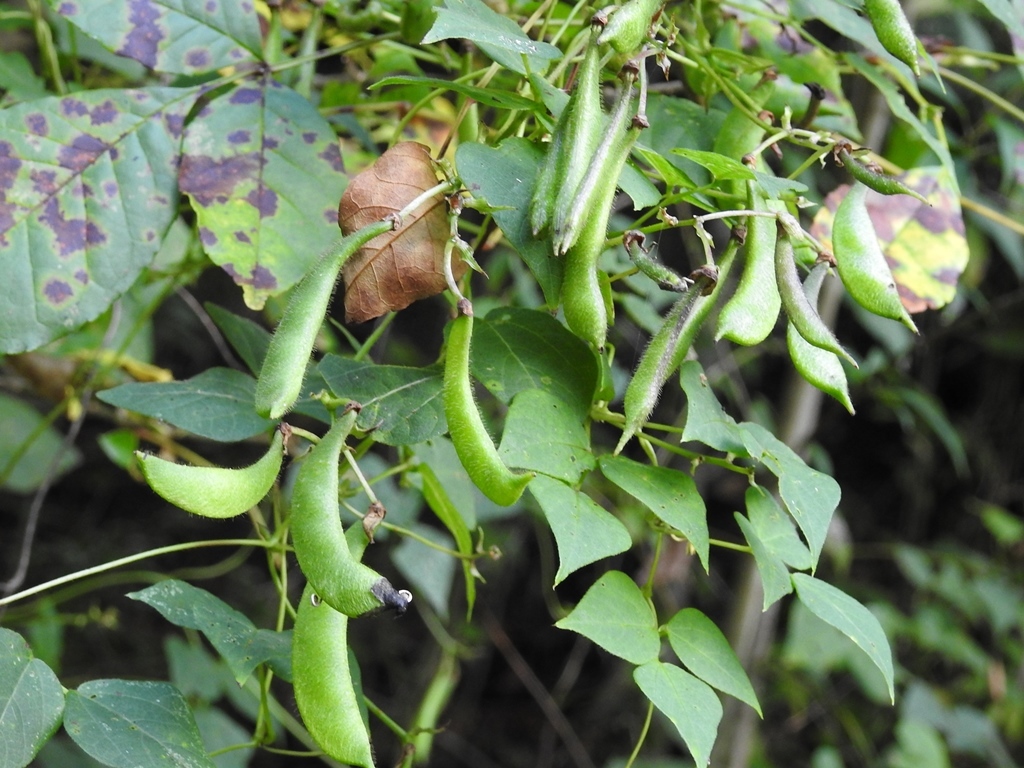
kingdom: Plantae
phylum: Tracheophyta
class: Magnoliopsida
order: Fabales
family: Fabaceae
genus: Phaseolus
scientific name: Phaseolus coccineus
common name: Runner bean
